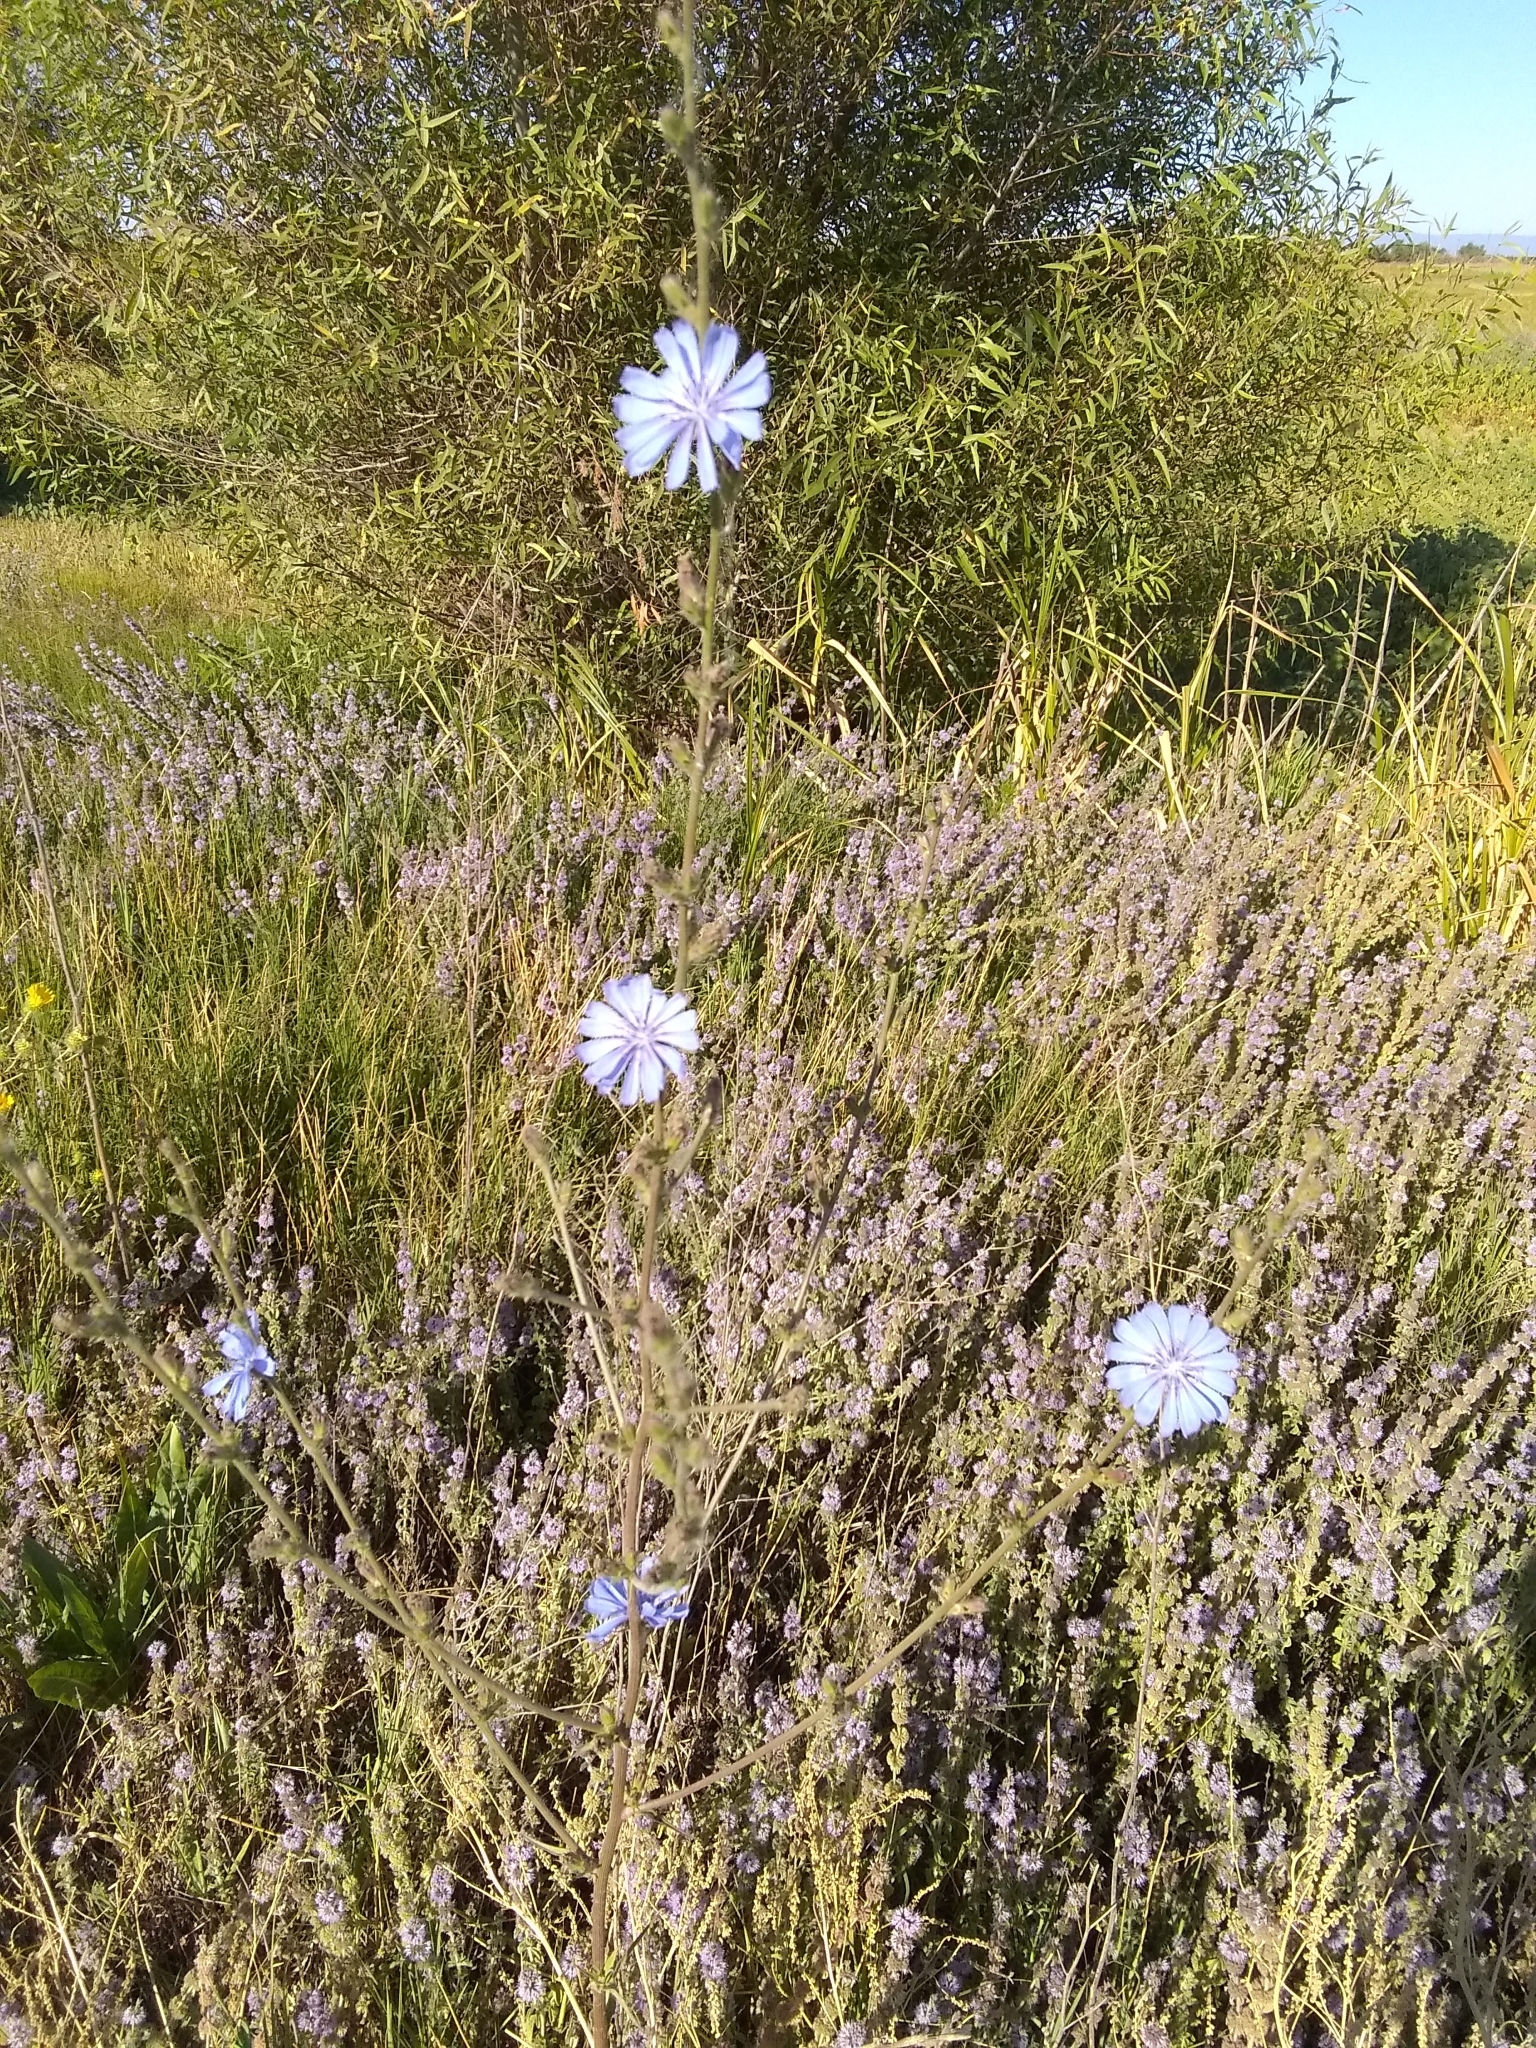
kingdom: Plantae
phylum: Tracheophyta
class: Magnoliopsida
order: Asterales
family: Asteraceae
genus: Cichorium
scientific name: Cichorium intybus
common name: Chicory
